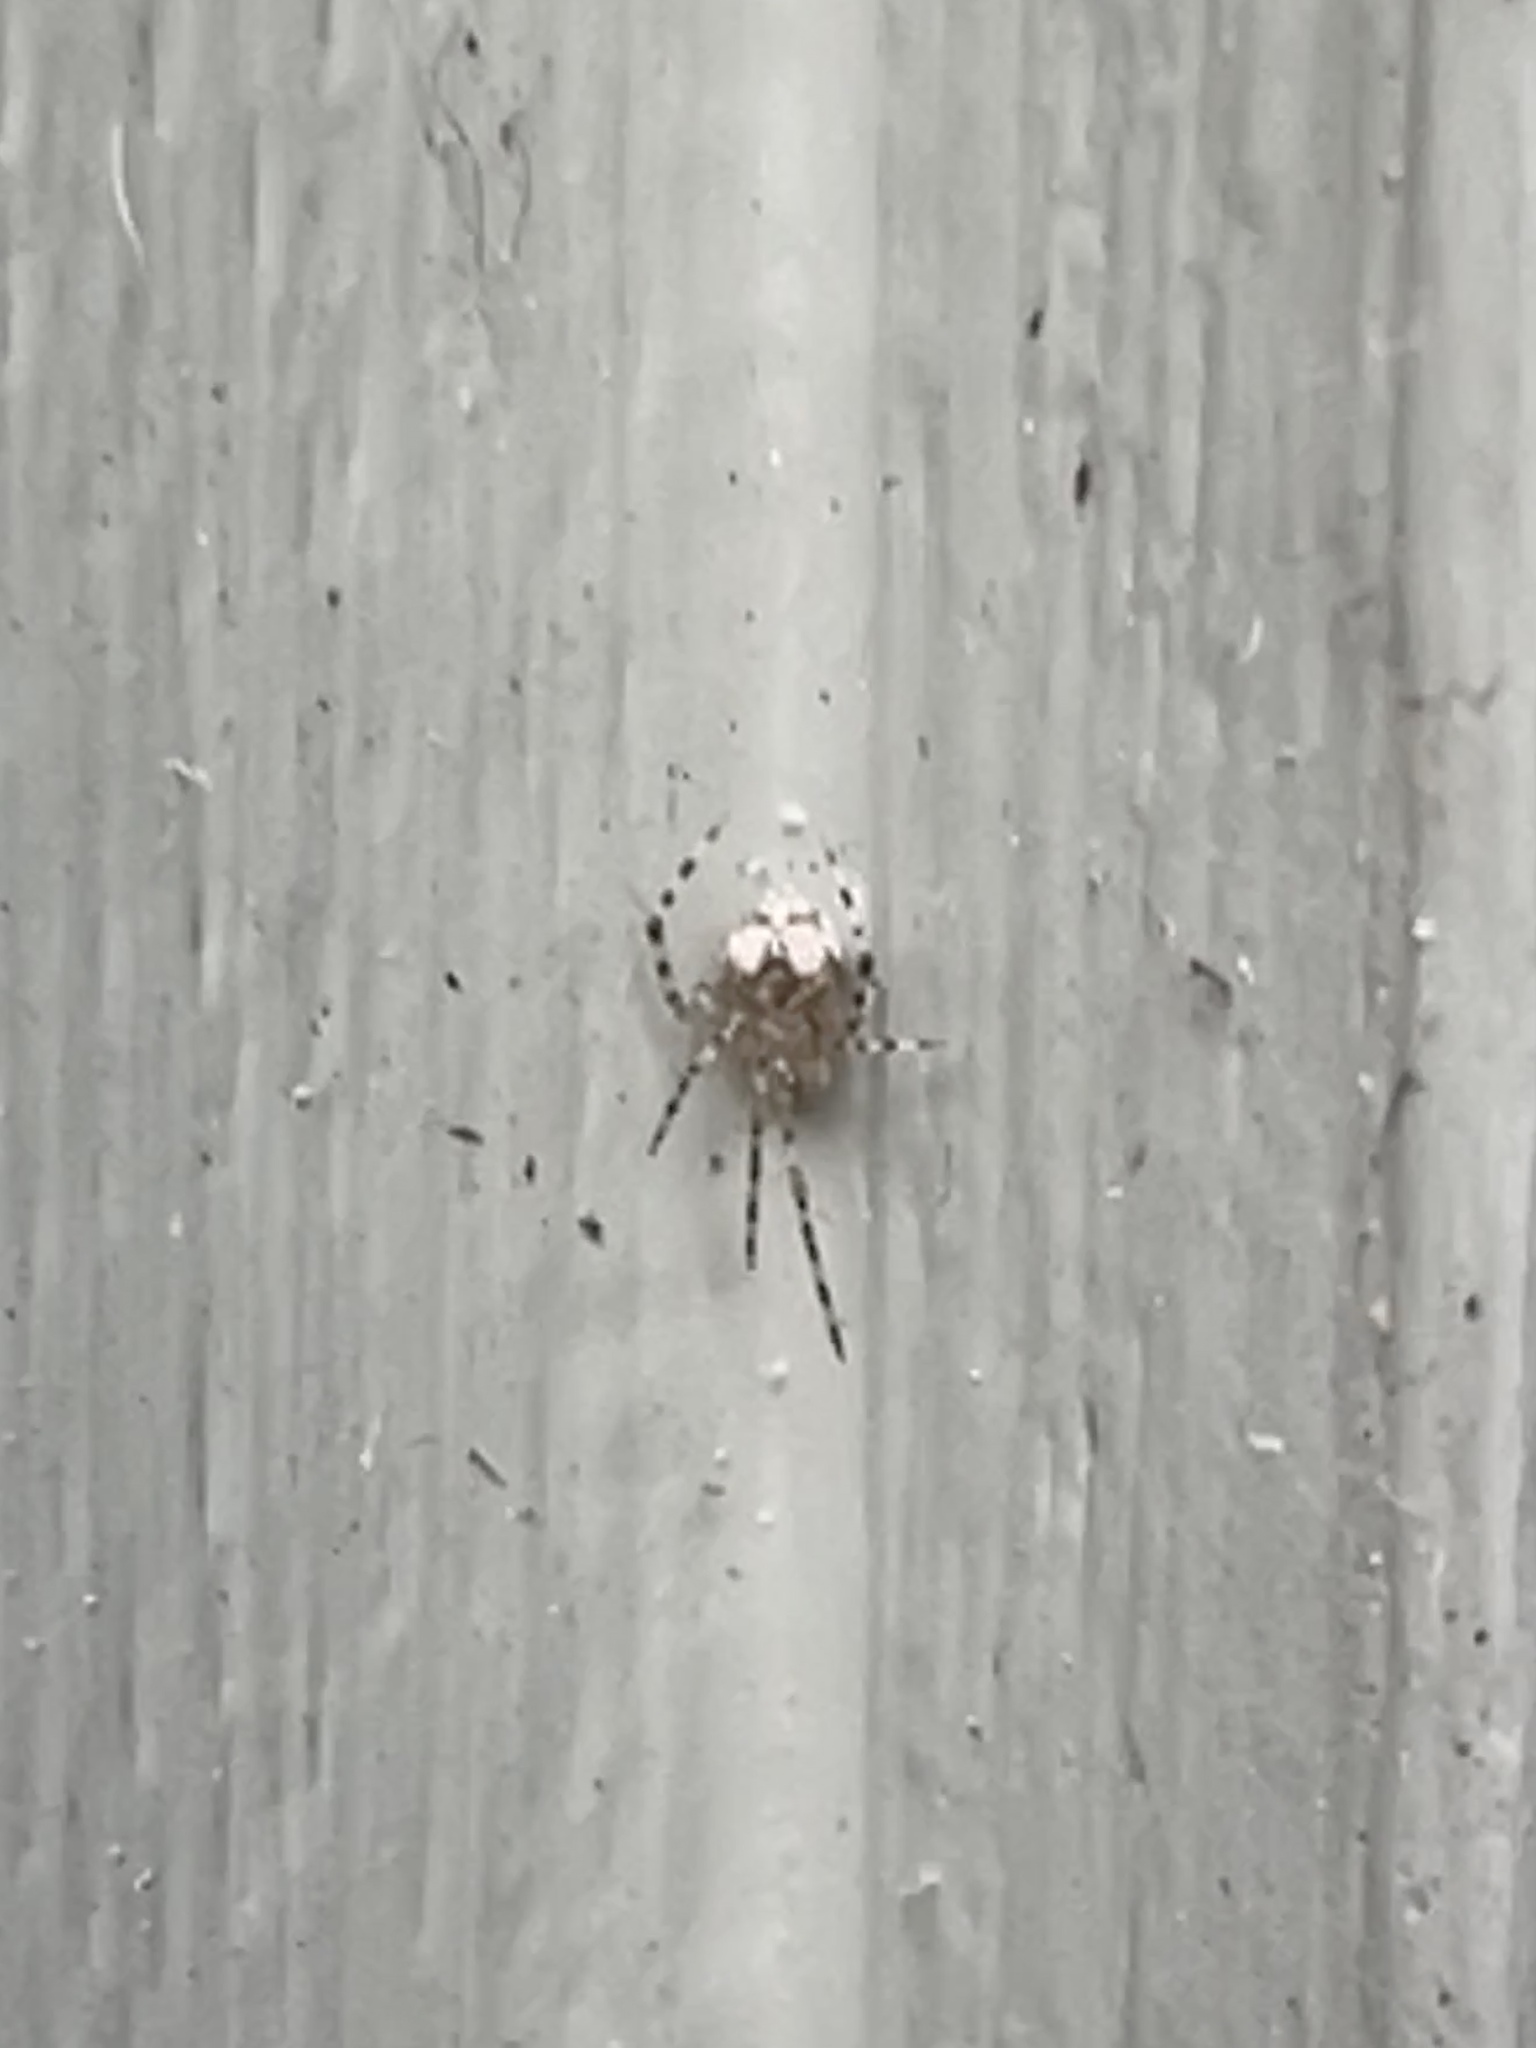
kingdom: Animalia
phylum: Arthropoda
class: Arachnida
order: Araneae
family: Theridiidae
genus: Cryptachaea
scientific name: Cryptachaea veruculata
